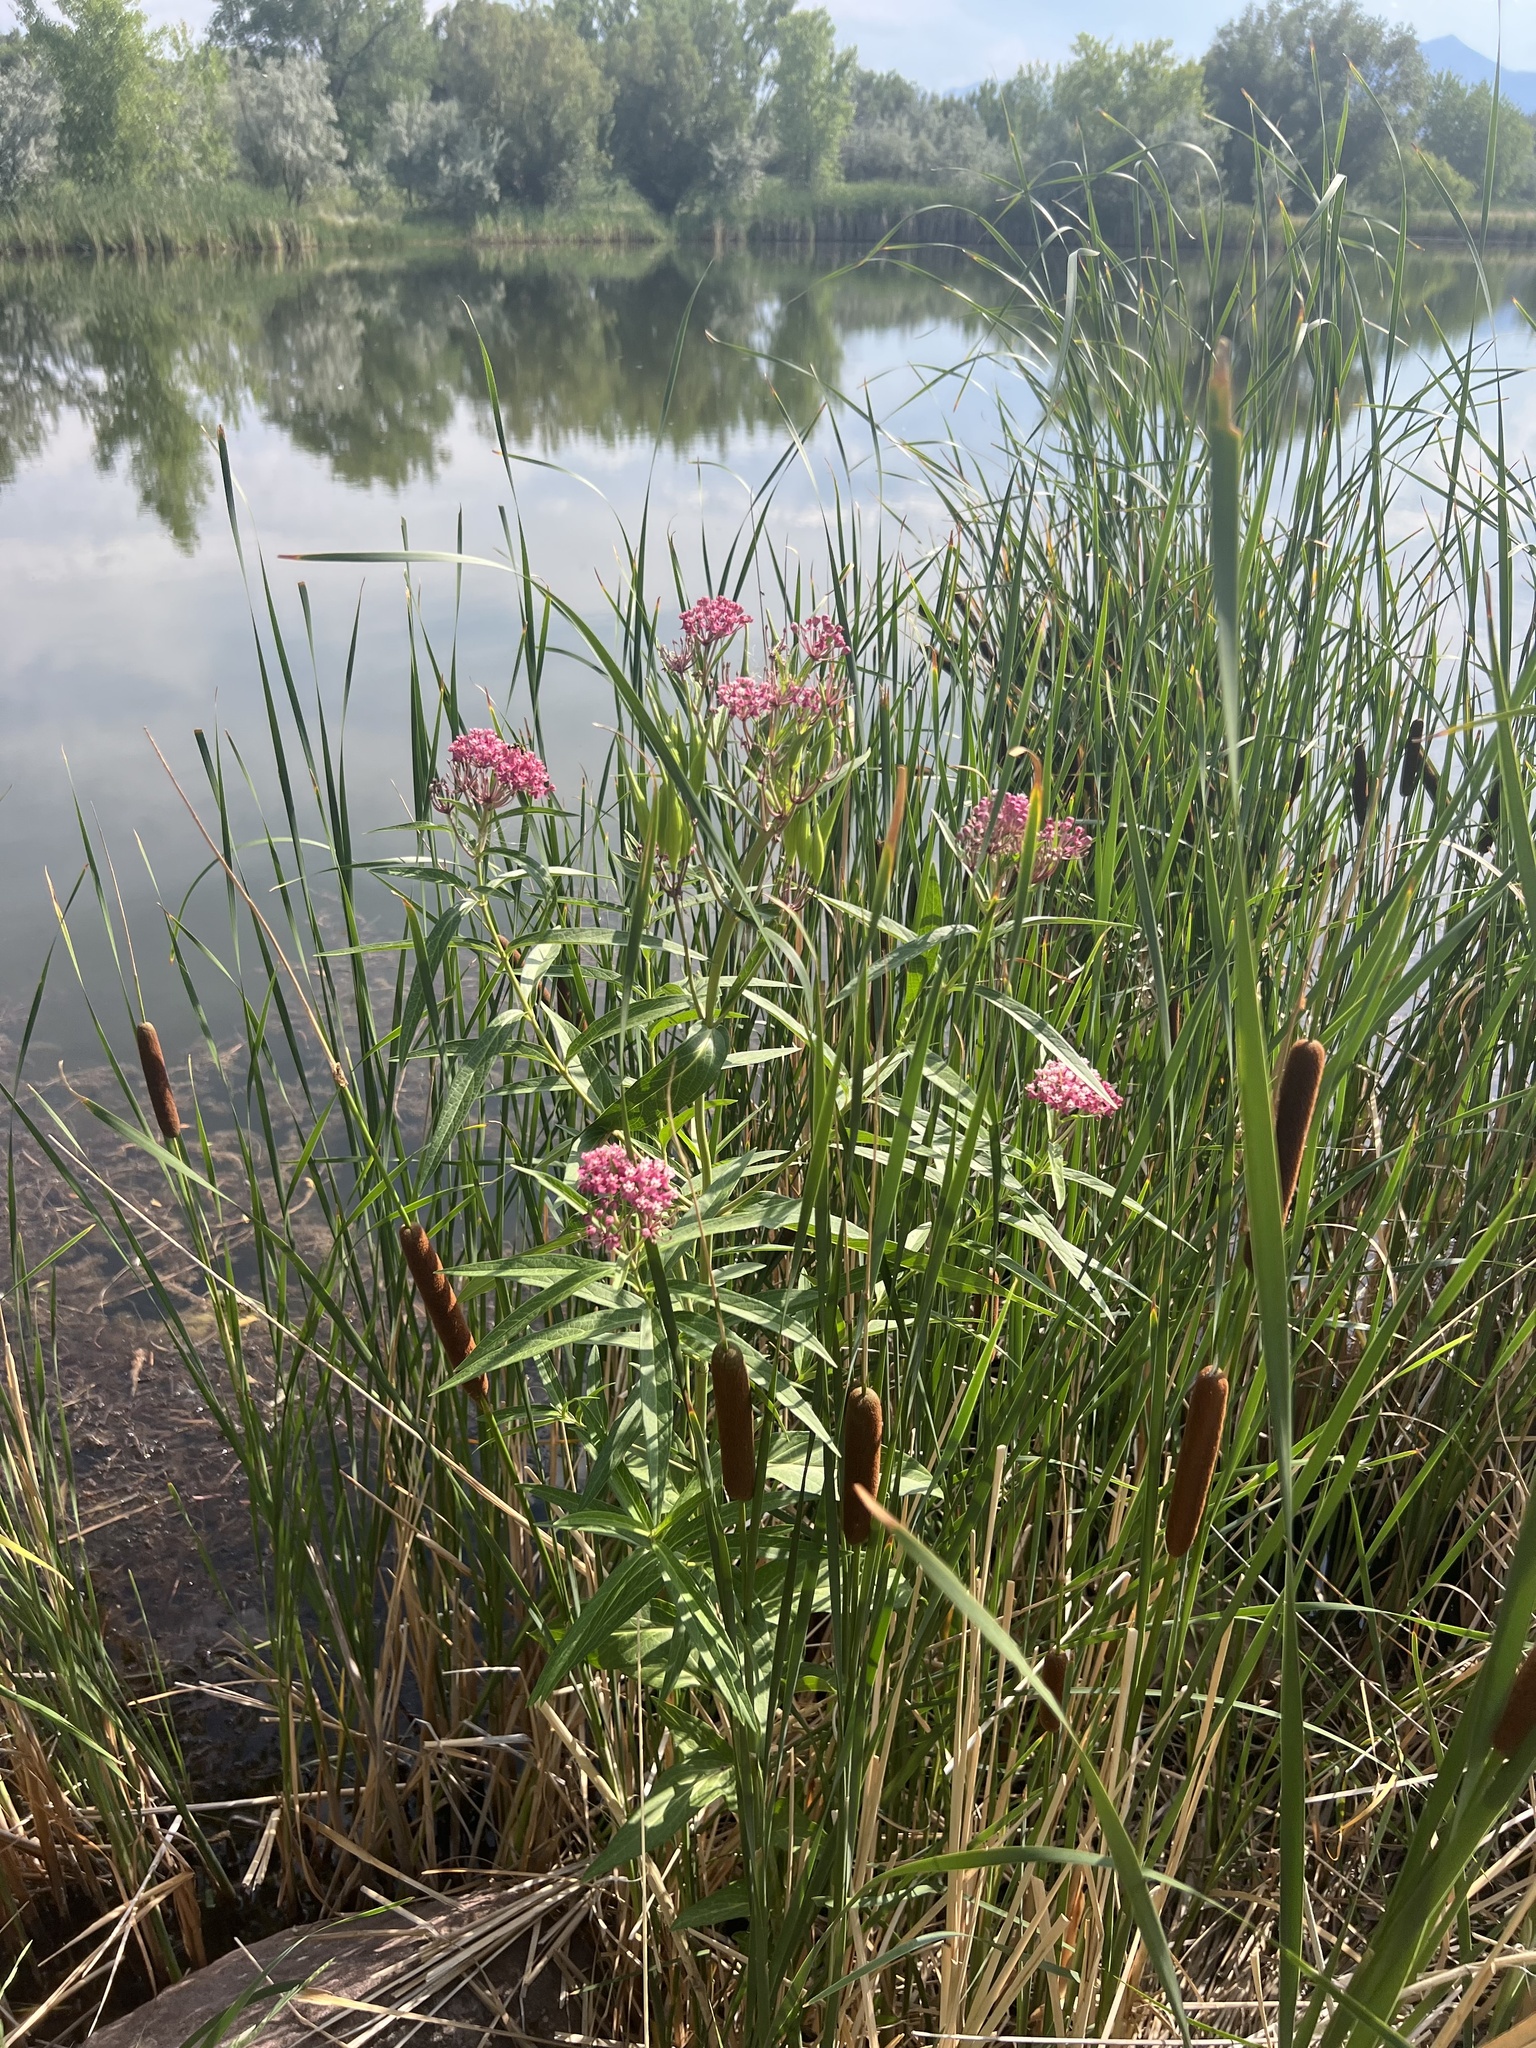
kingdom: Plantae
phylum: Tracheophyta
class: Magnoliopsida
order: Gentianales
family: Apocynaceae
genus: Asclepias
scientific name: Asclepias incarnata
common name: Swamp milkweed
